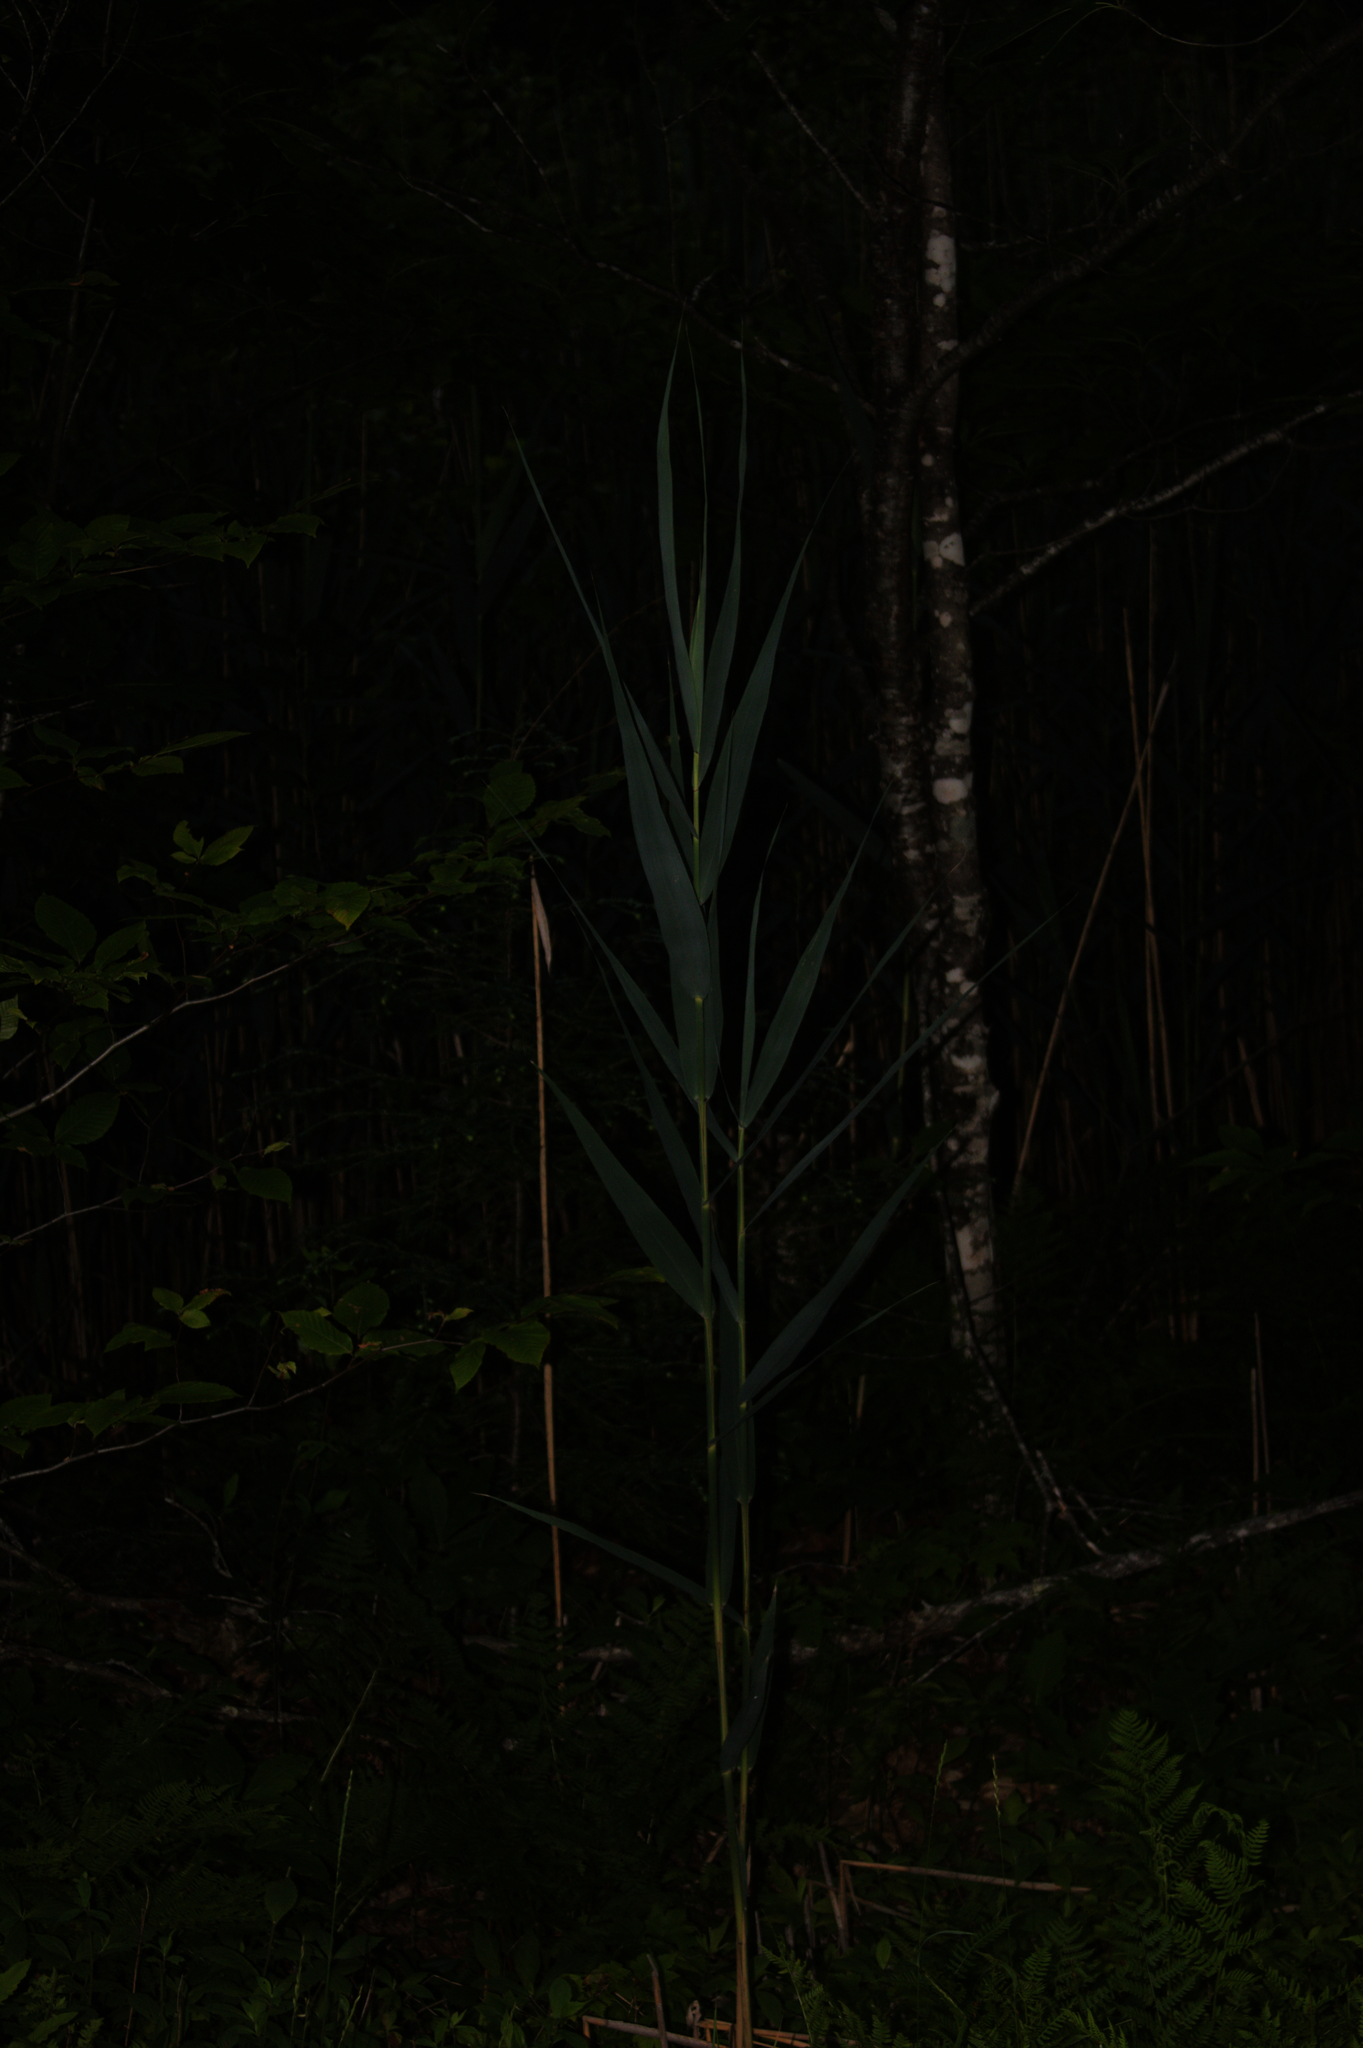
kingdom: Plantae
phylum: Tracheophyta
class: Liliopsida
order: Poales
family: Poaceae
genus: Phragmites
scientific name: Phragmites australis
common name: Common reed
